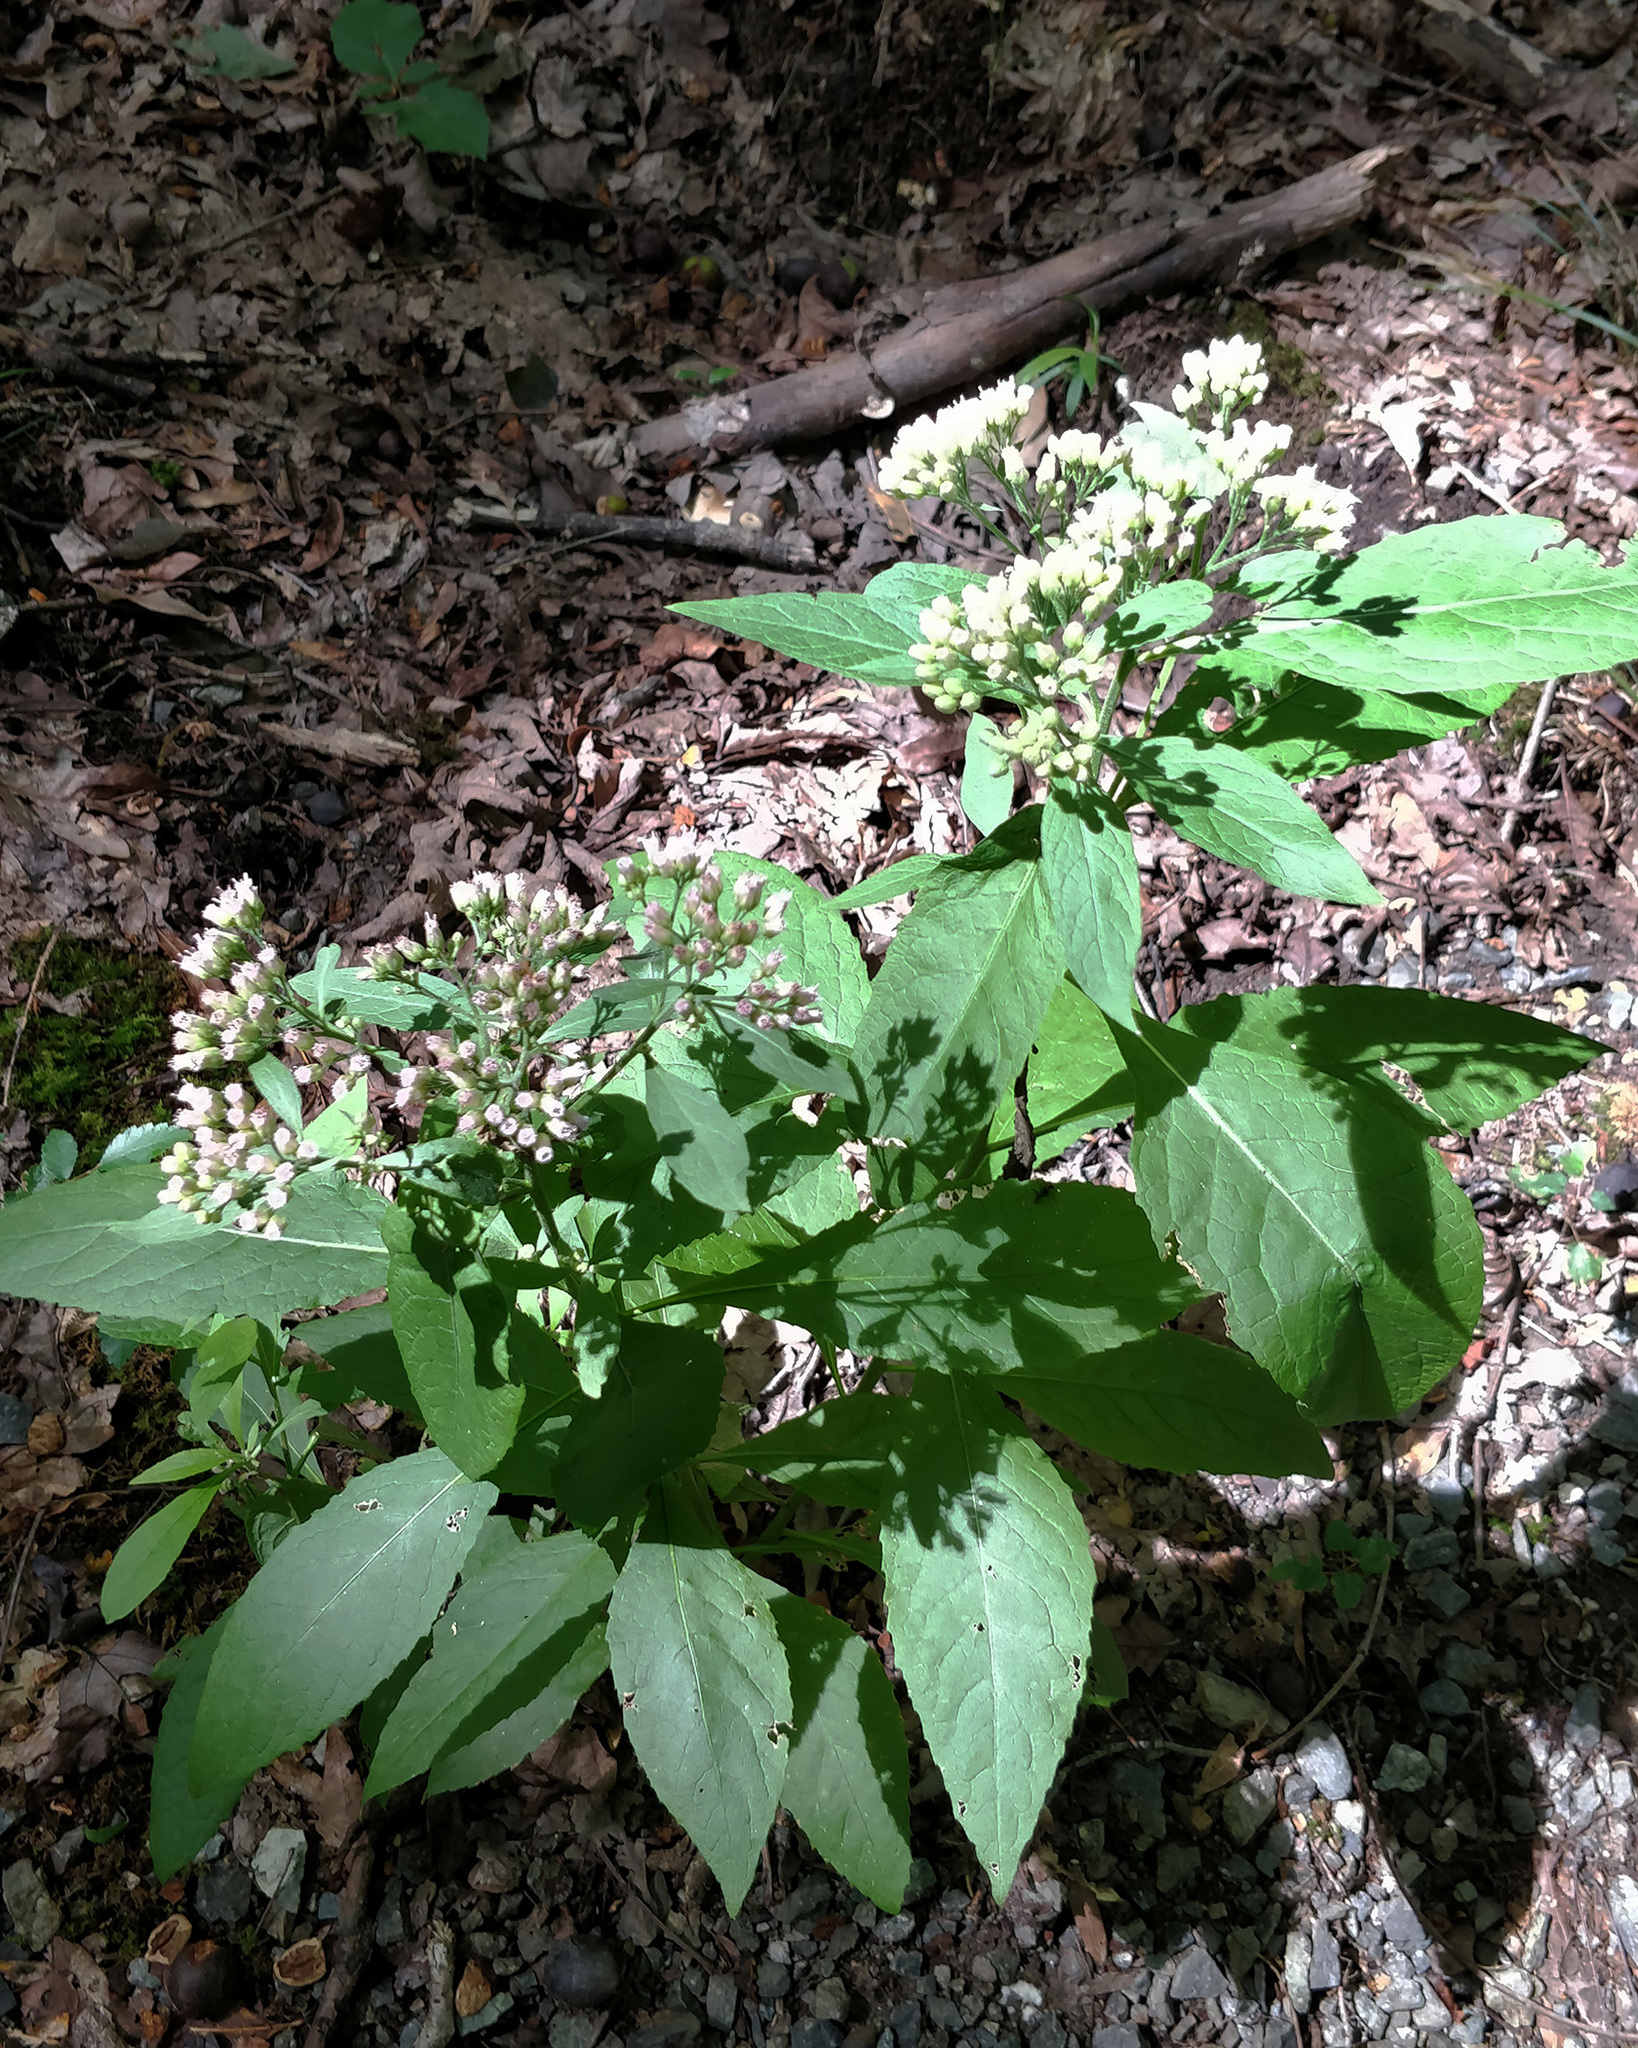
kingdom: Plantae
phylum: Tracheophyta
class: Magnoliopsida
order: Asterales
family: Asteraceae
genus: Pluchea
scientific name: Pluchea camphorata
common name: Camphor pluchea
